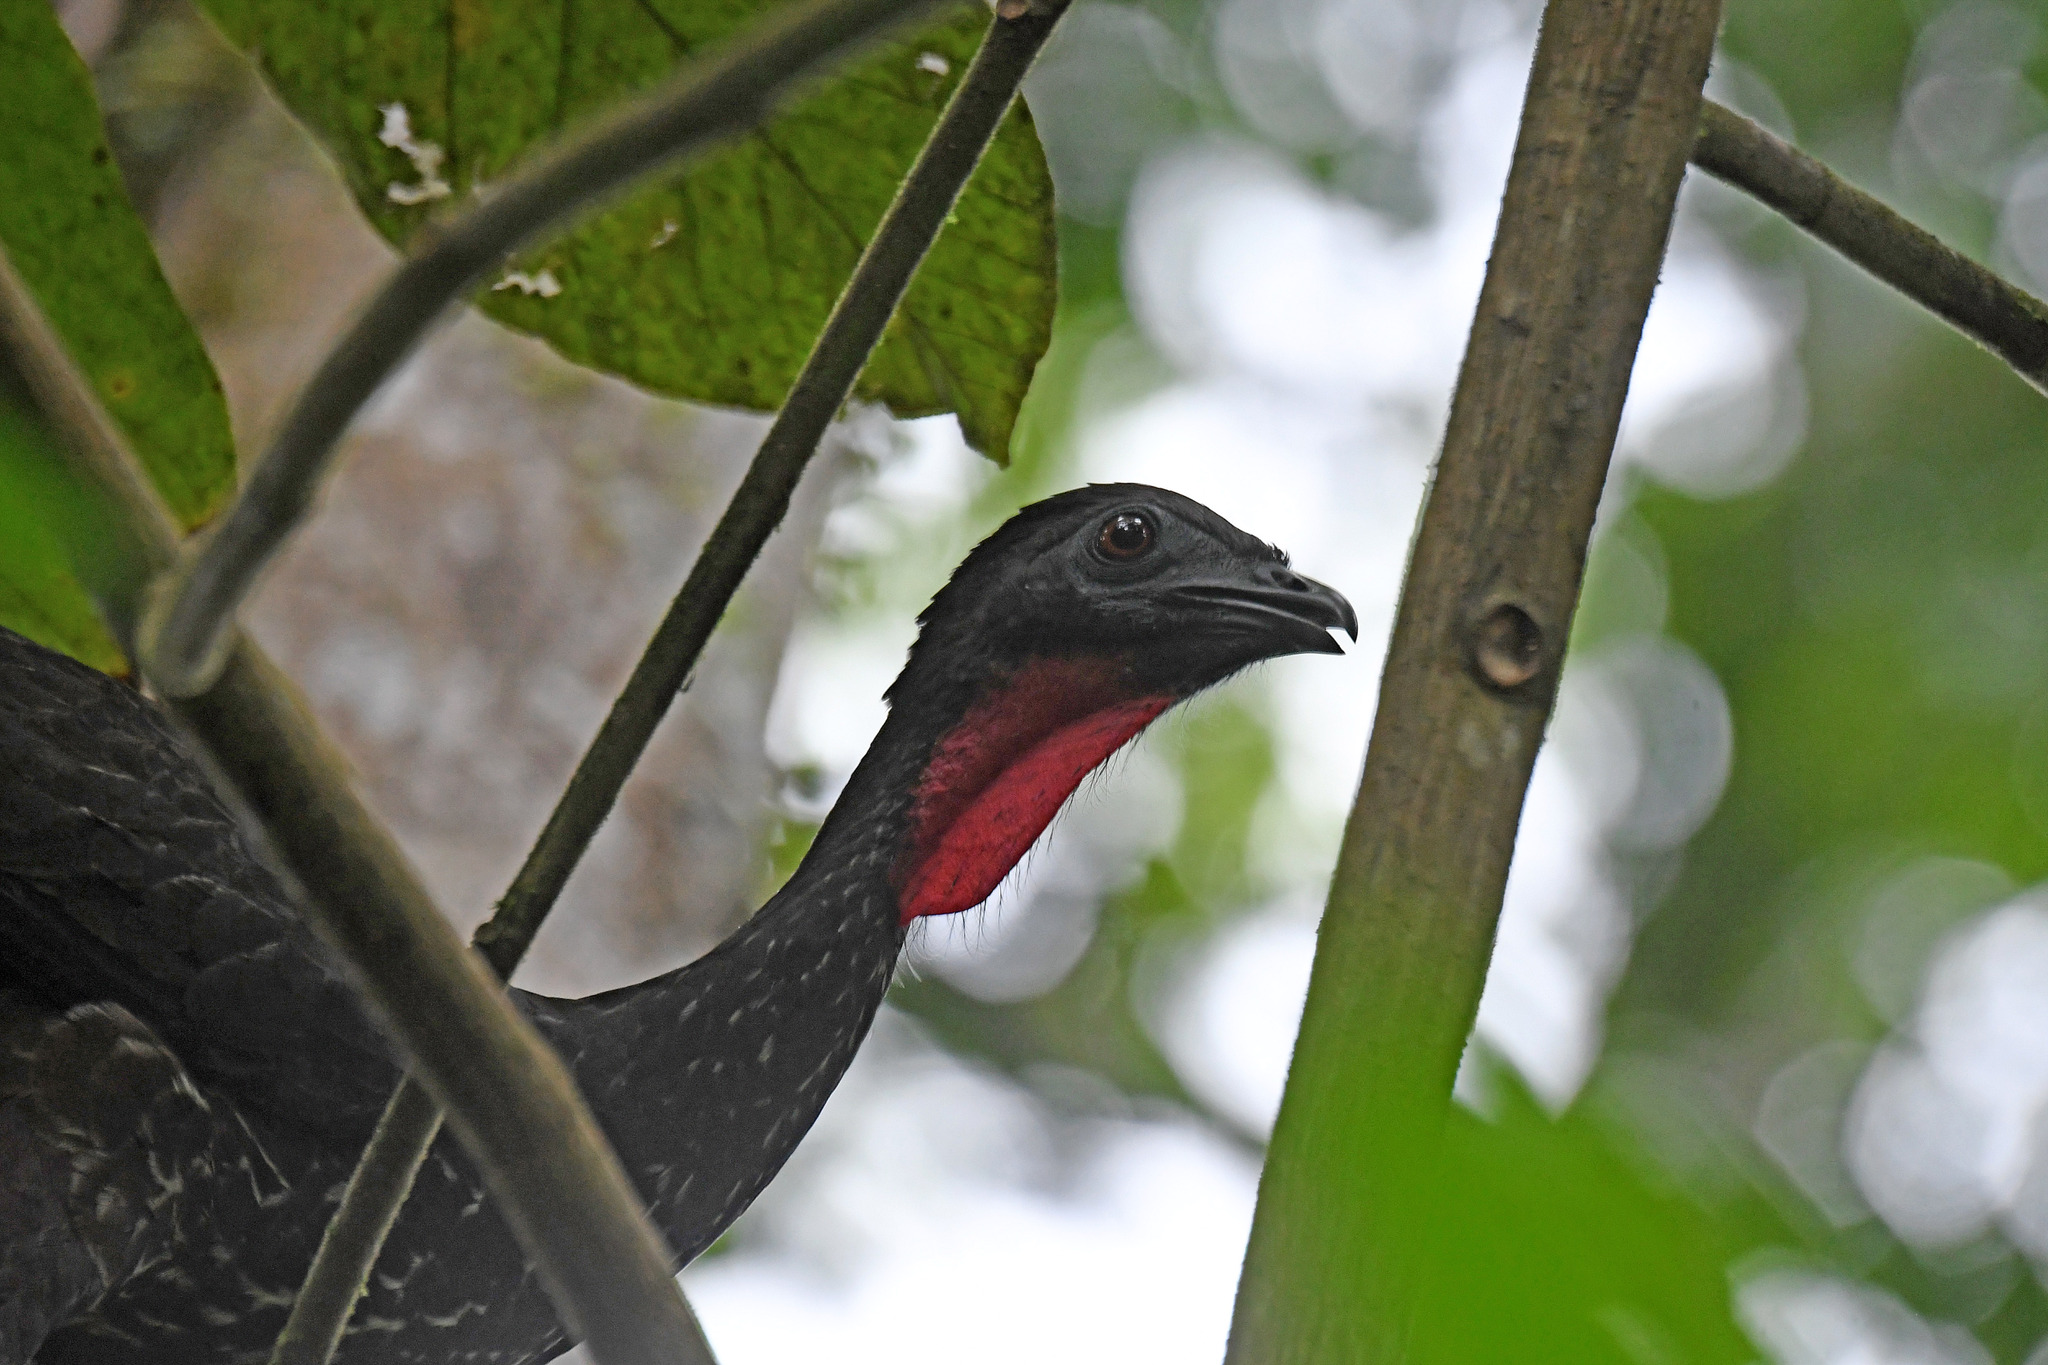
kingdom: Animalia
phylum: Chordata
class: Aves
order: Galliformes
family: Cracidae
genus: Penelope
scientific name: Penelope purpurascens
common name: Crested guan
